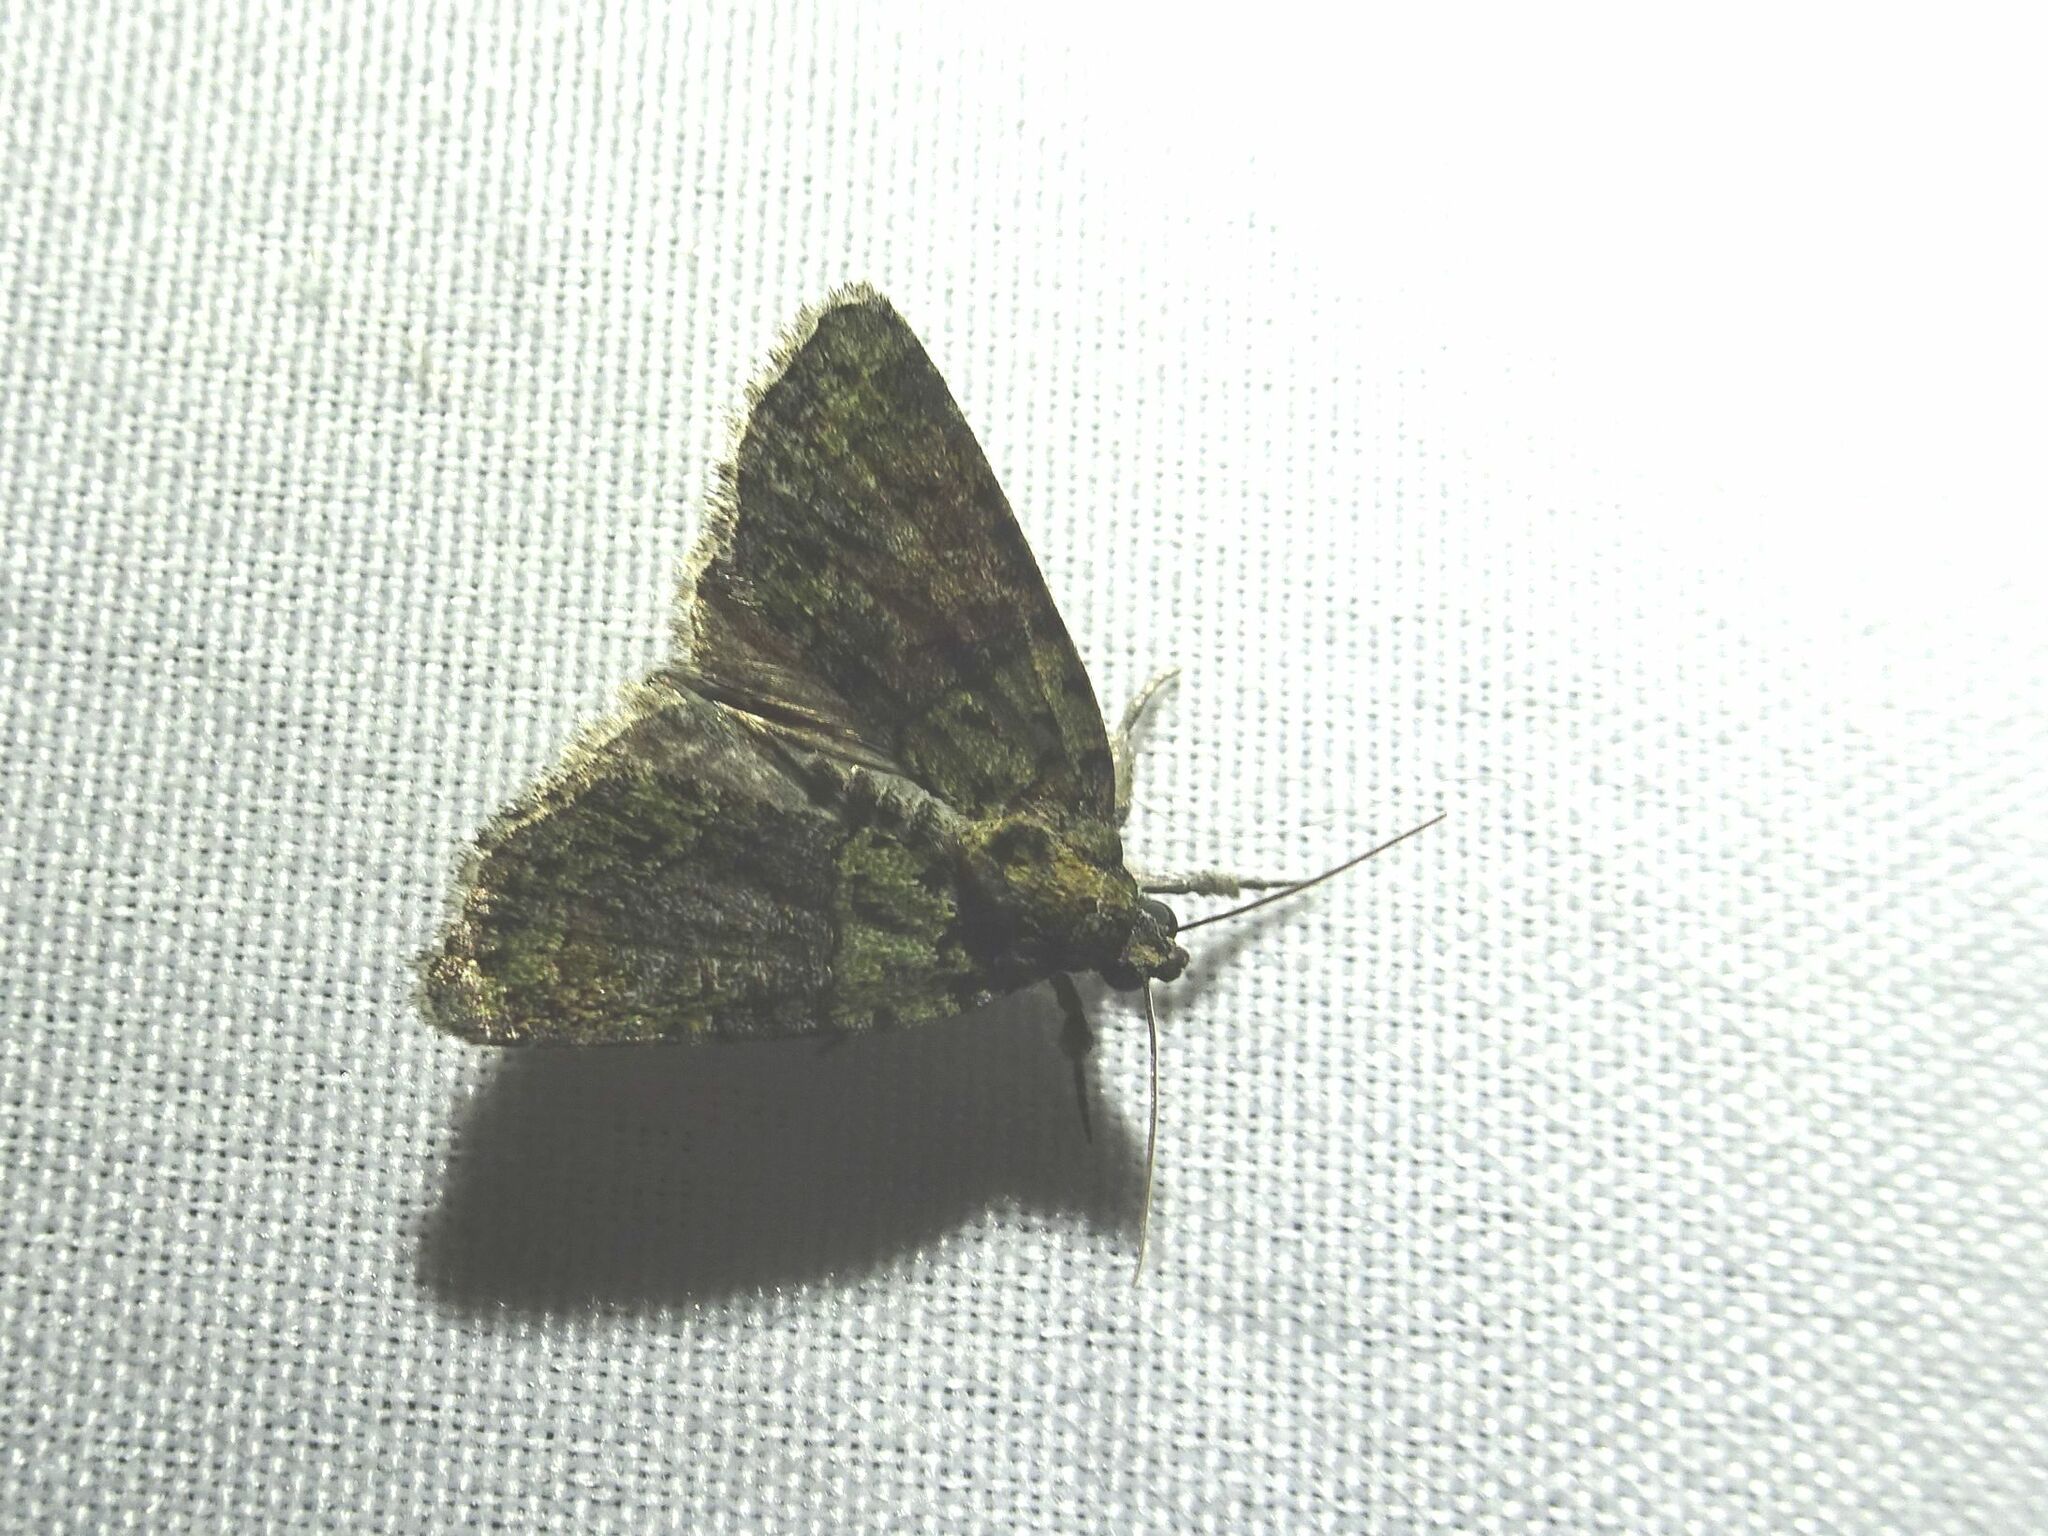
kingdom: Animalia
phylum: Arthropoda
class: Insecta
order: Lepidoptera
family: Noctuidae
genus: Cryphia
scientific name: Cryphia algae
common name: Tree-lichen beauty
